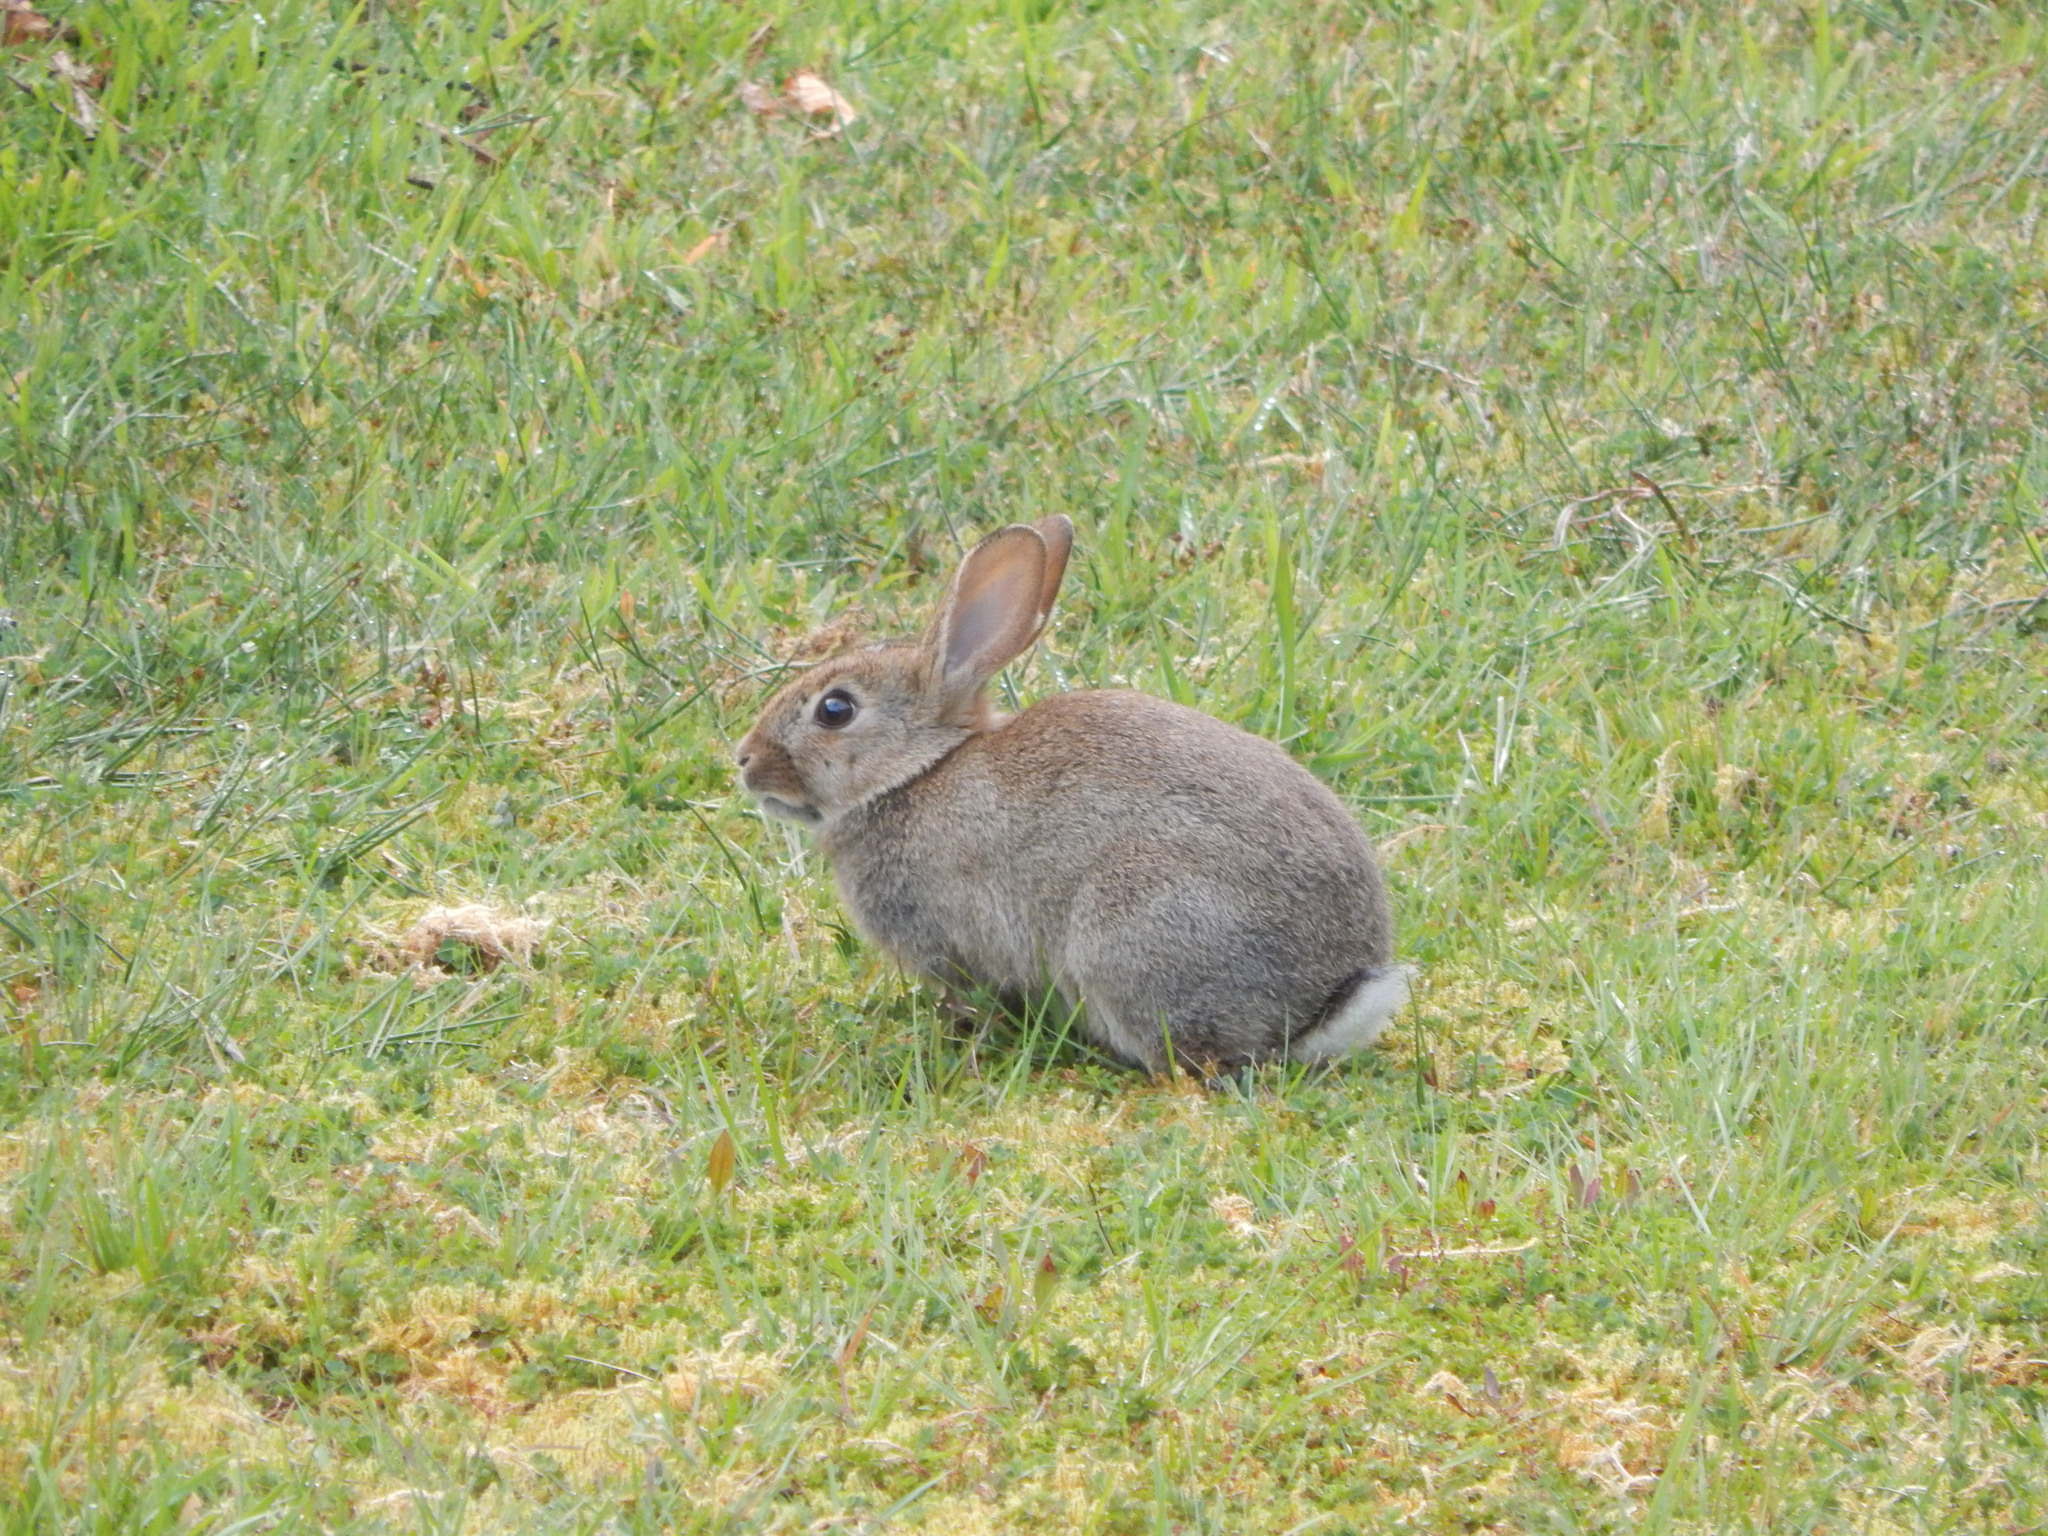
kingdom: Animalia
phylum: Chordata
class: Mammalia
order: Lagomorpha
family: Leporidae
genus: Oryctolagus
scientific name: Oryctolagus cuniculus
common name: European rabbit
